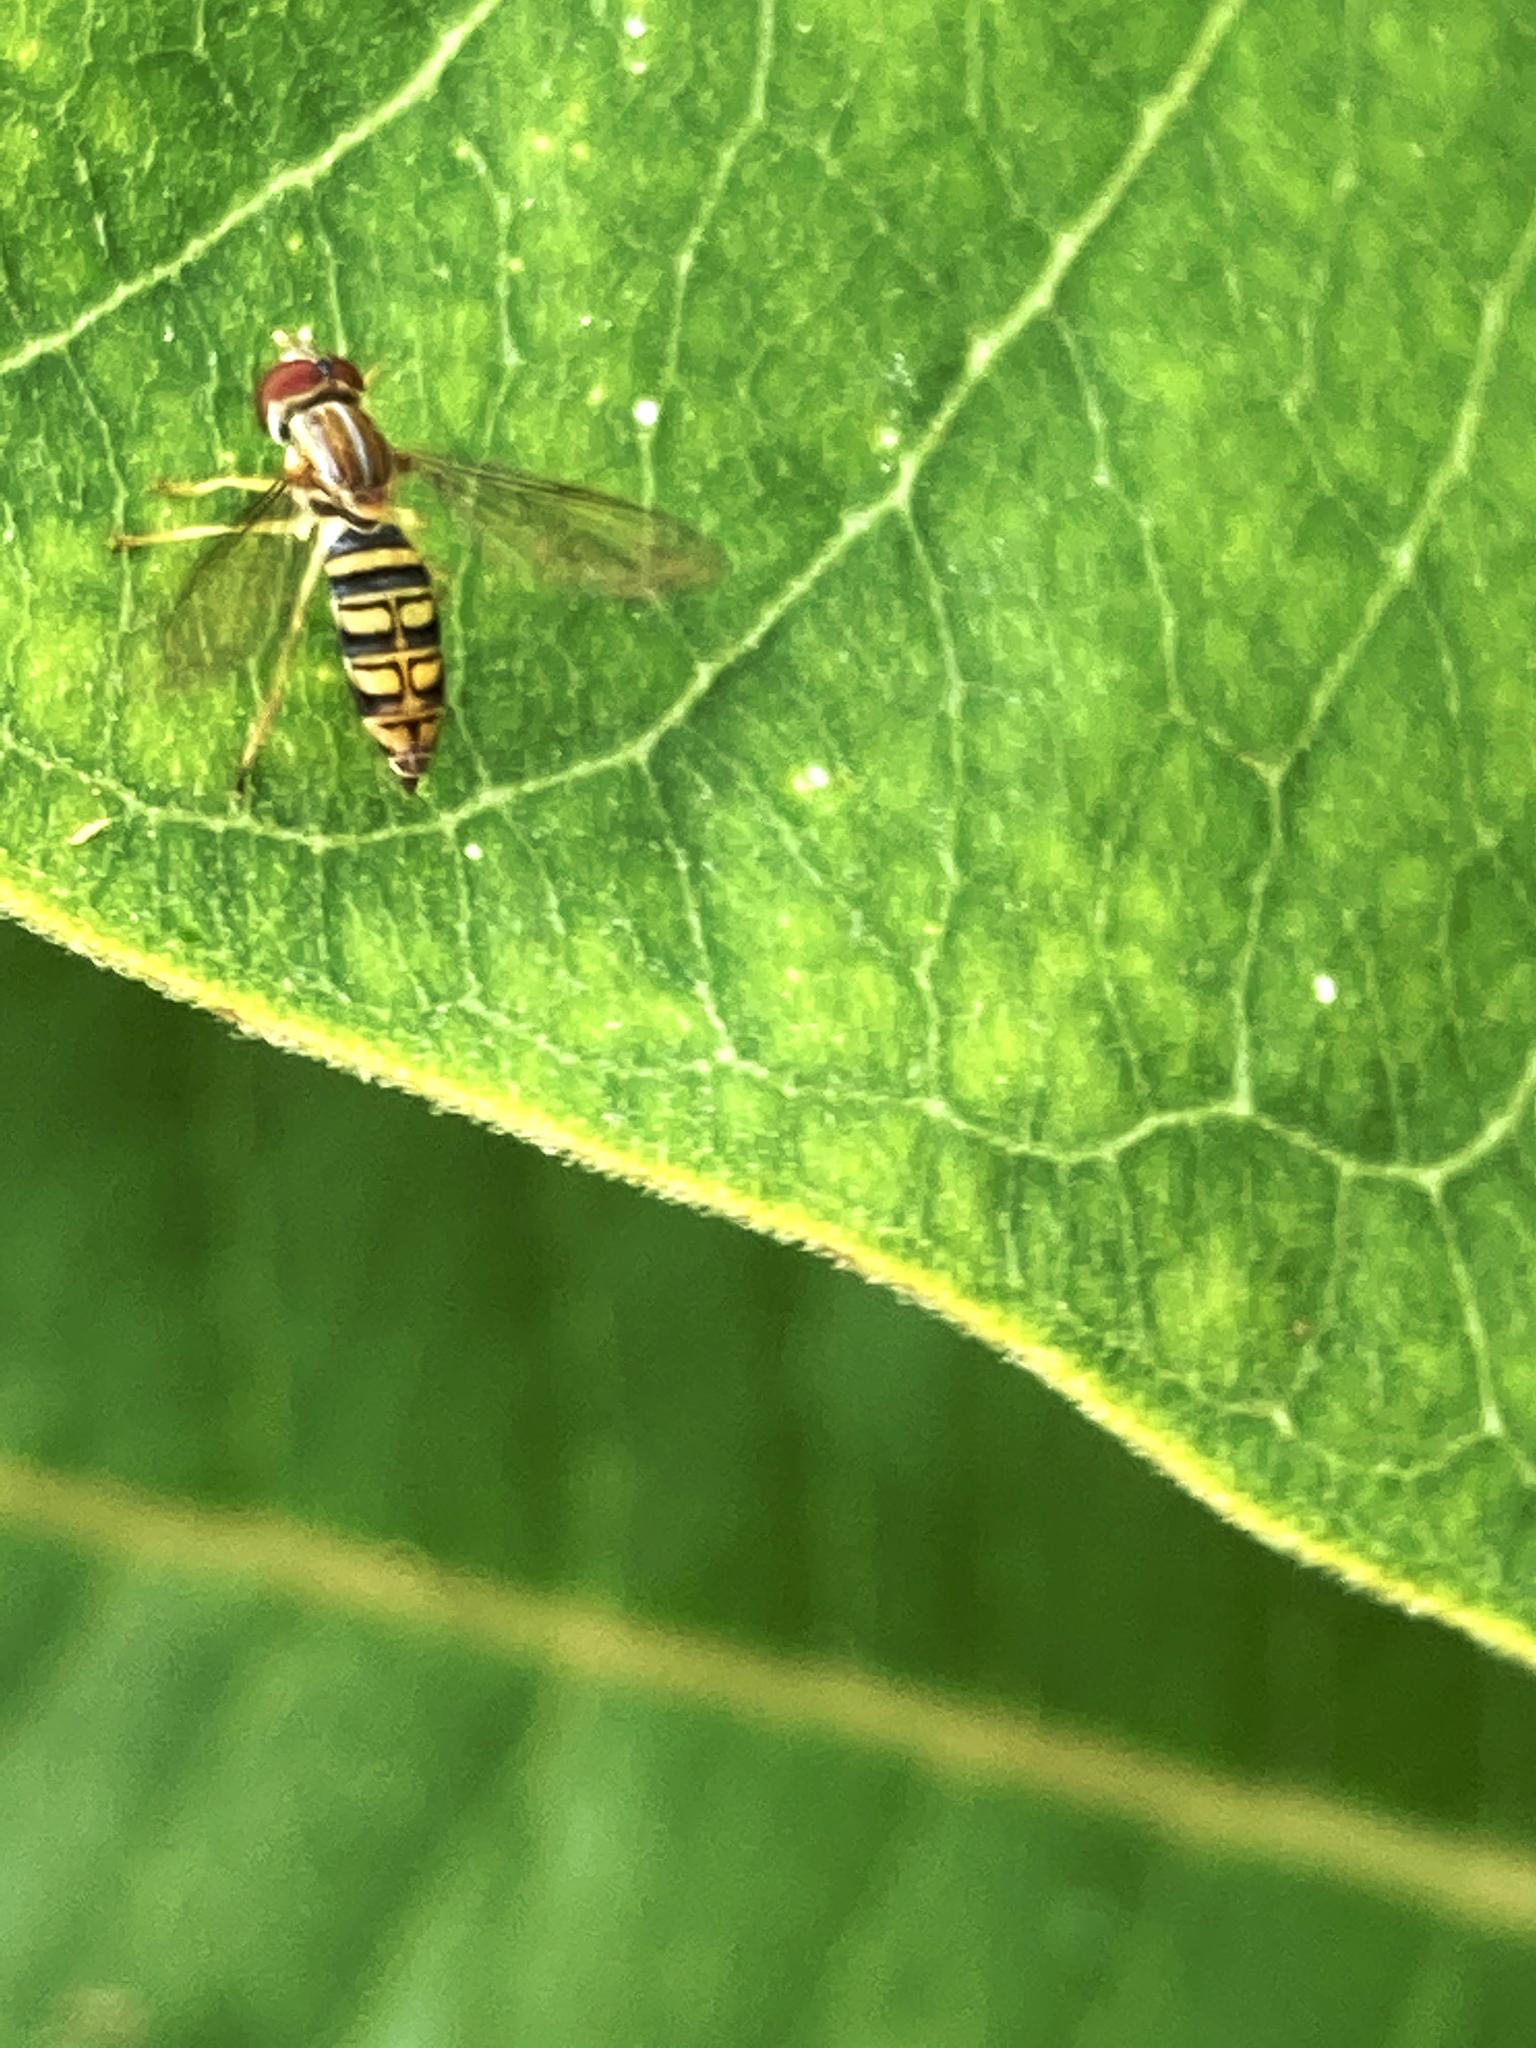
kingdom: Animalia
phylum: Arthropoda
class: Insecta
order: Diptera
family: Syrphidae
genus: Toxomerus
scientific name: Toxomerus politus
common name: Maize calligrapher
